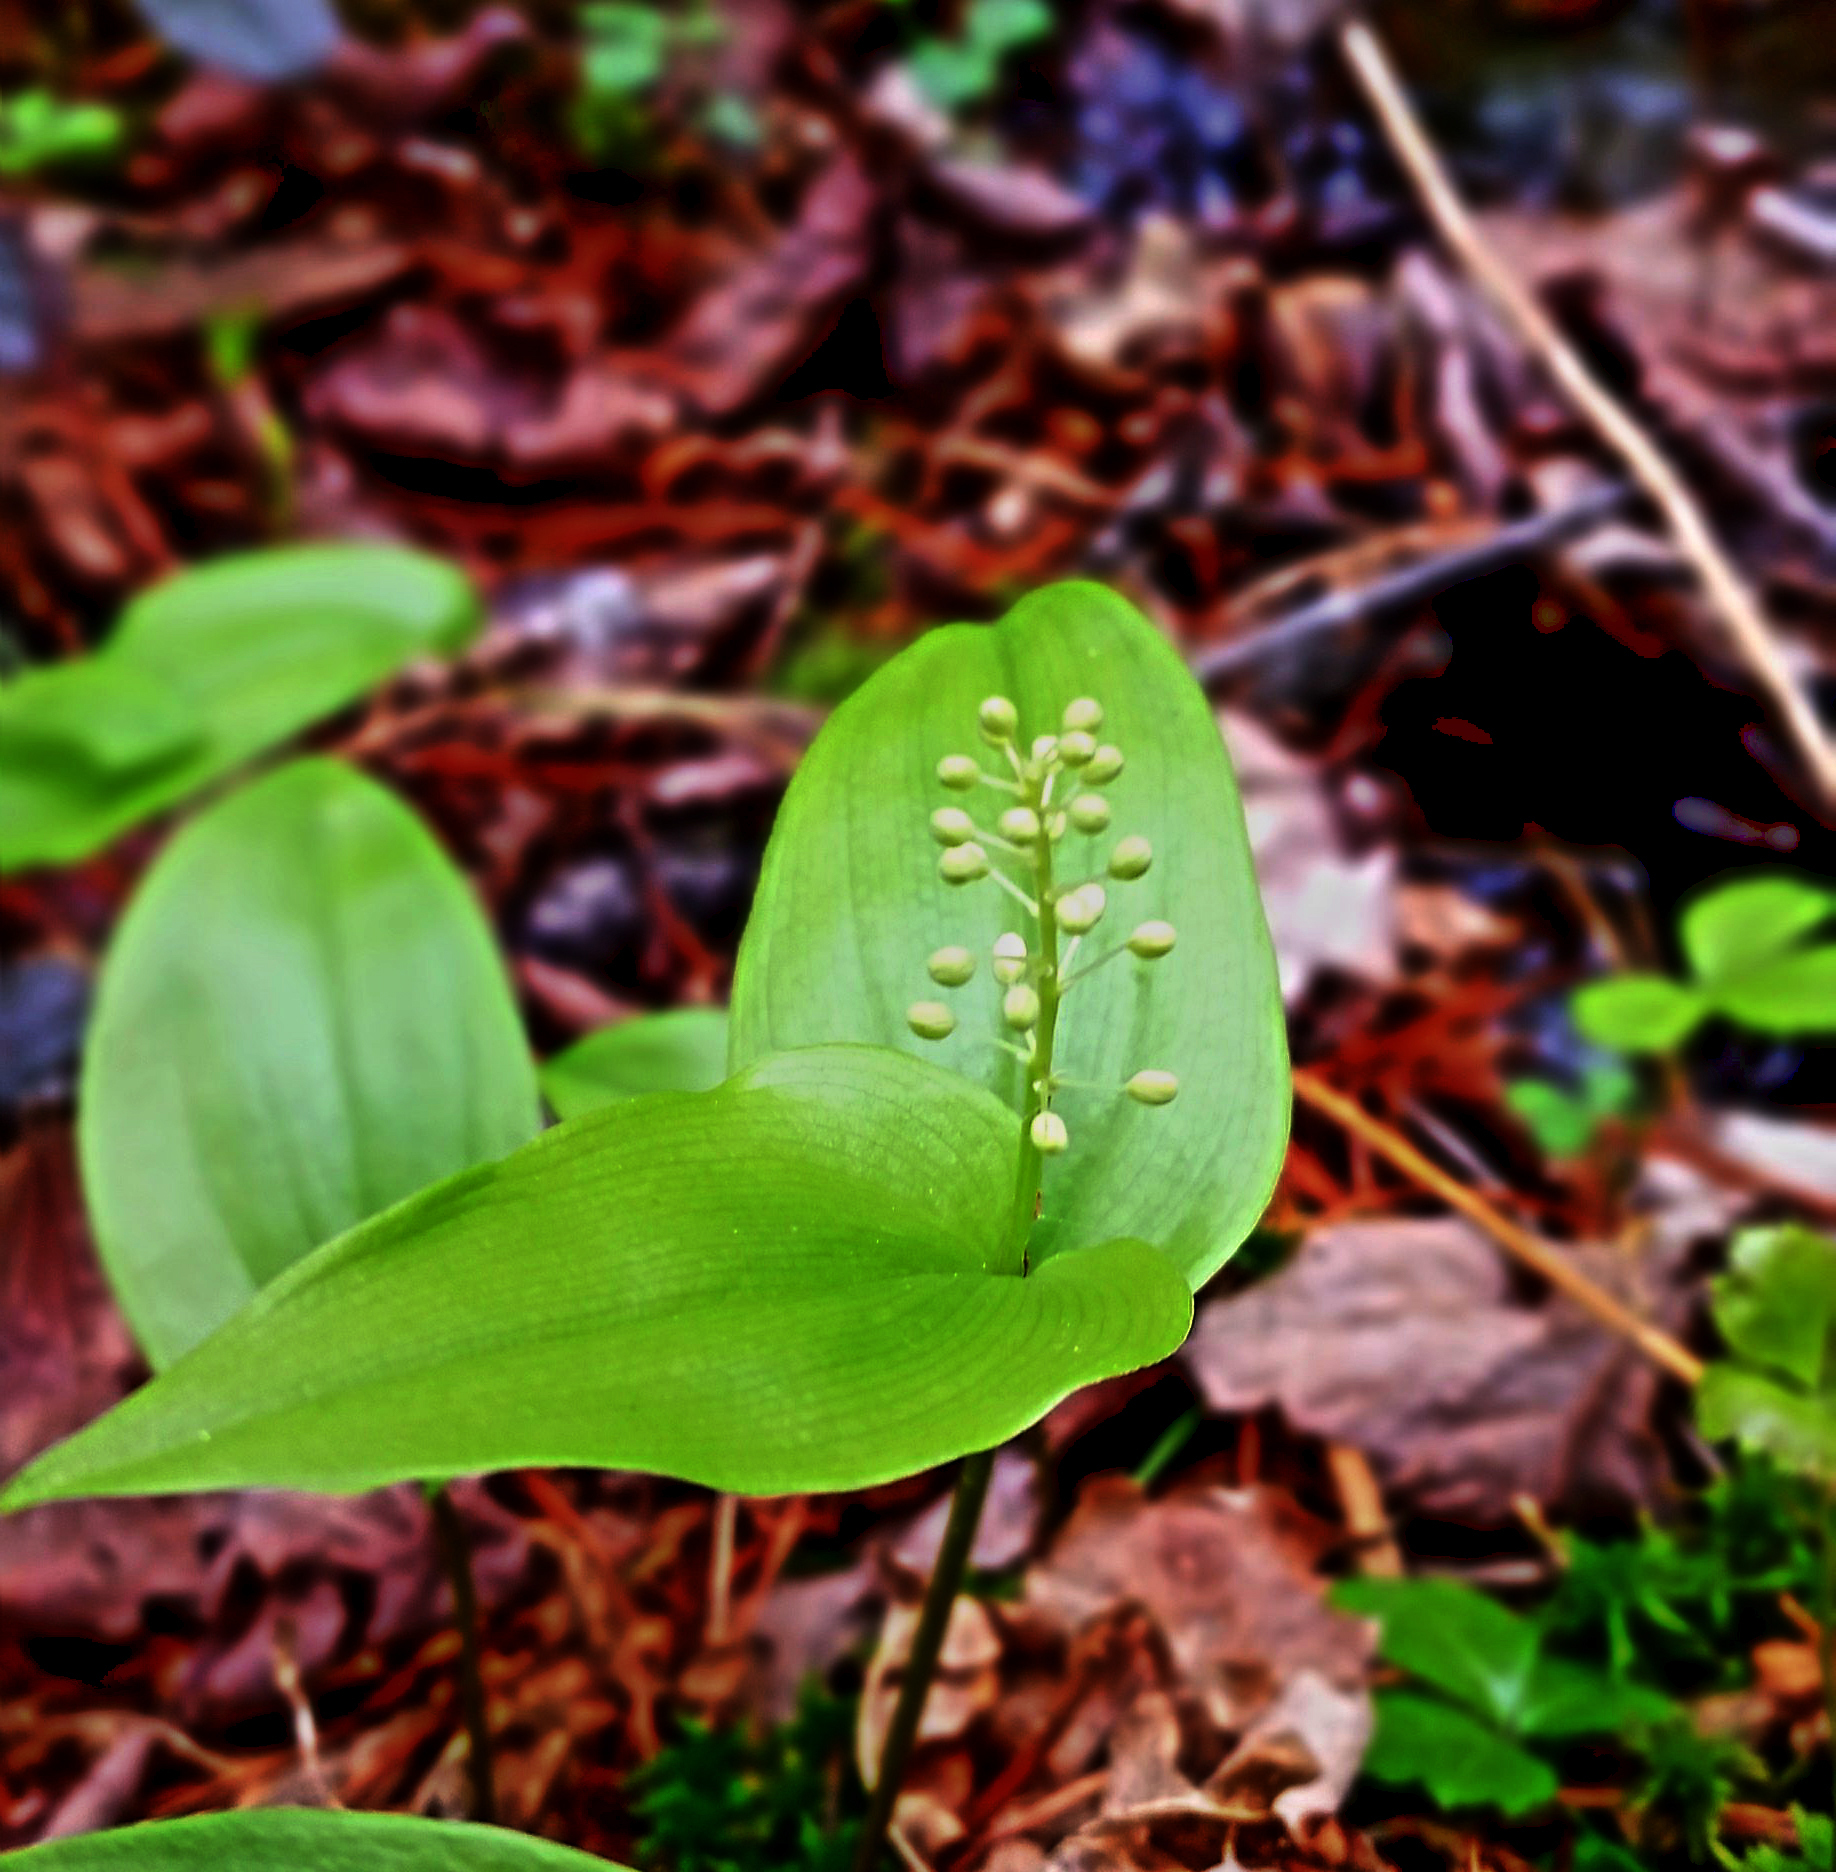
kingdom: Plantae
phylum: Tracheophyta
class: Liliopsida
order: Asparagales
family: Asparagaceae
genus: Maianthemum
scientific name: Maianthemum canadense
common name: False lily-of-the-valley
